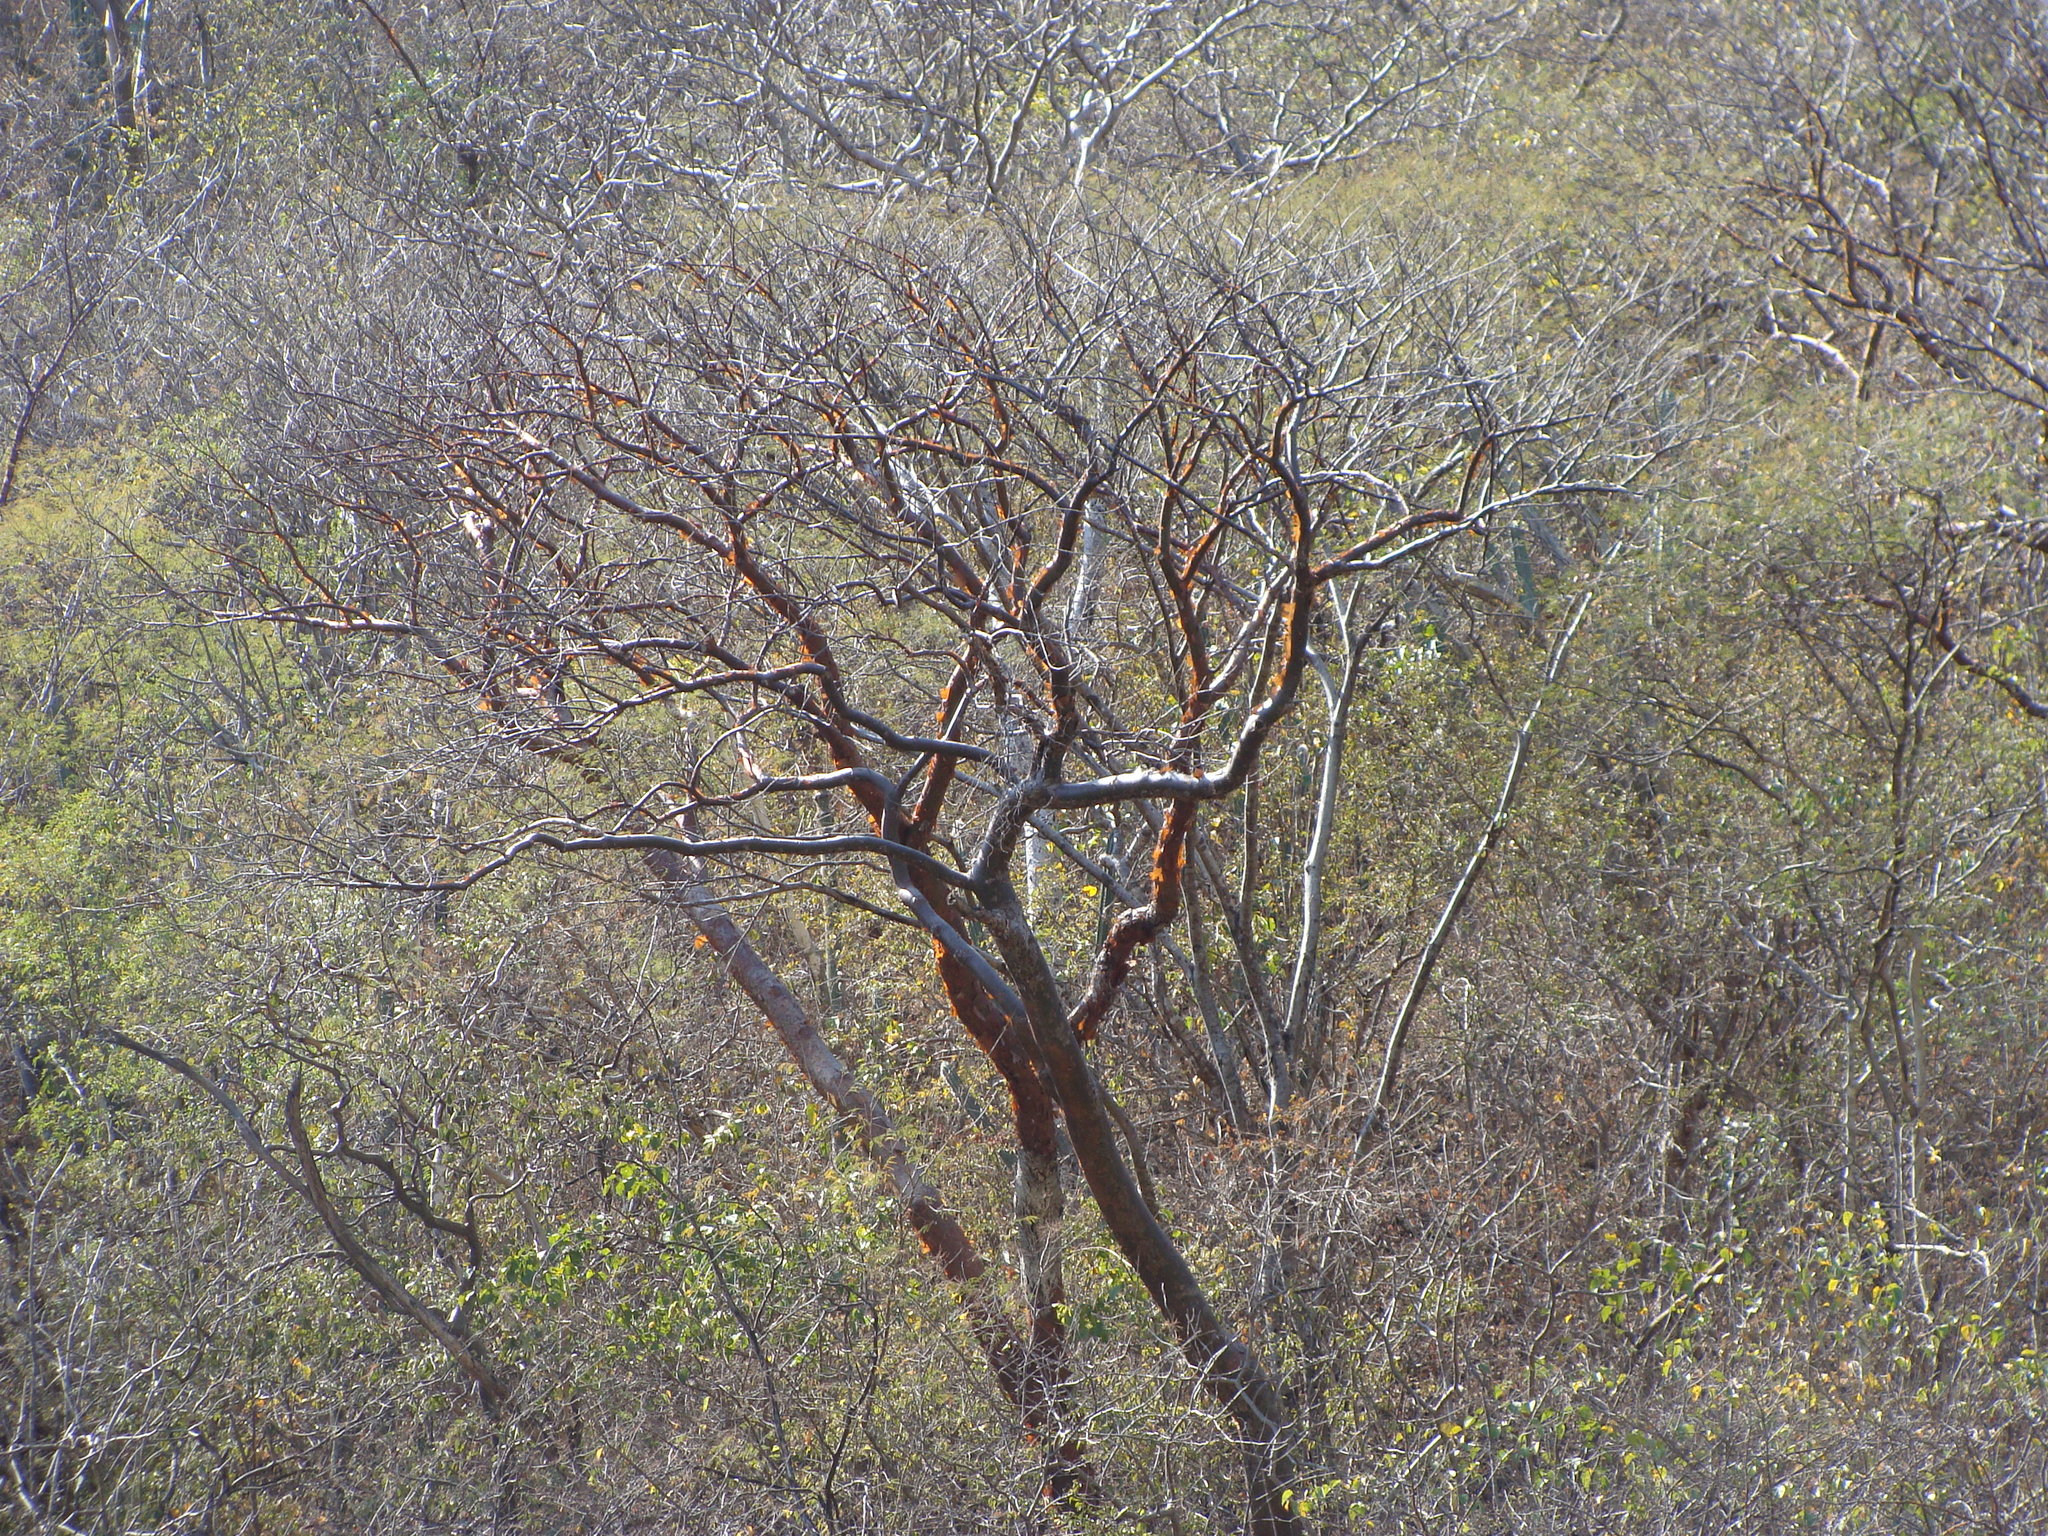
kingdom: Plantae
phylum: Tracheophyta
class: Magnoliopsida
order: Sapindales
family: Burseraceae
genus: Bursera
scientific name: Bursera simaruba
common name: Turpentine tree
